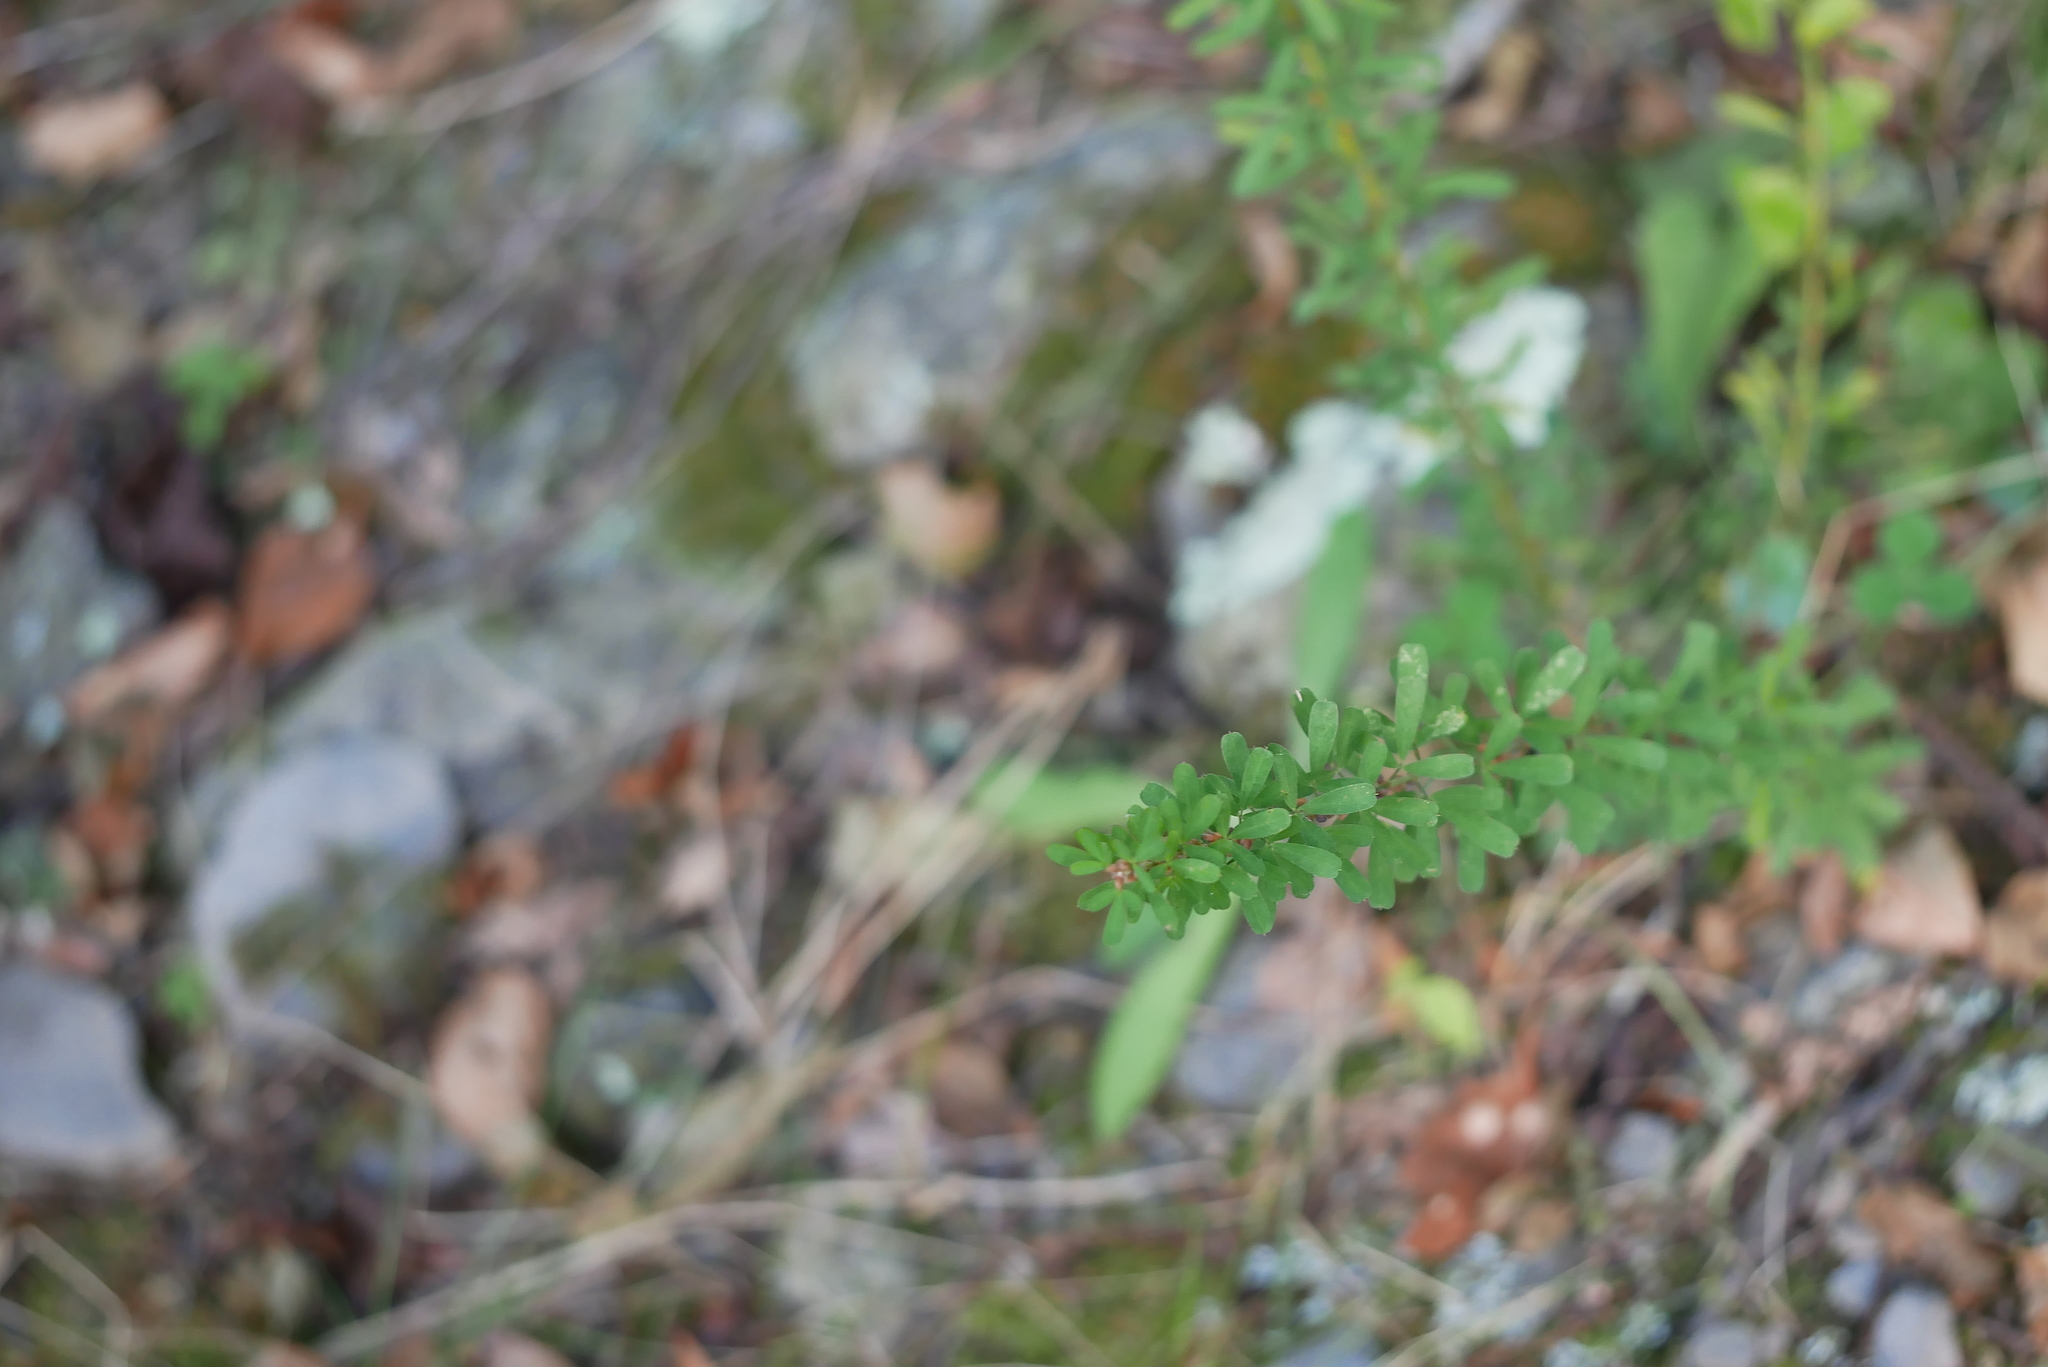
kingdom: Plantae
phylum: Tracheophyta
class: Magnoliopsida
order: Fabales
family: Fabaceae
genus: Lespedeza
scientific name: Lespedeza cuneata
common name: Chinese bush-clover
